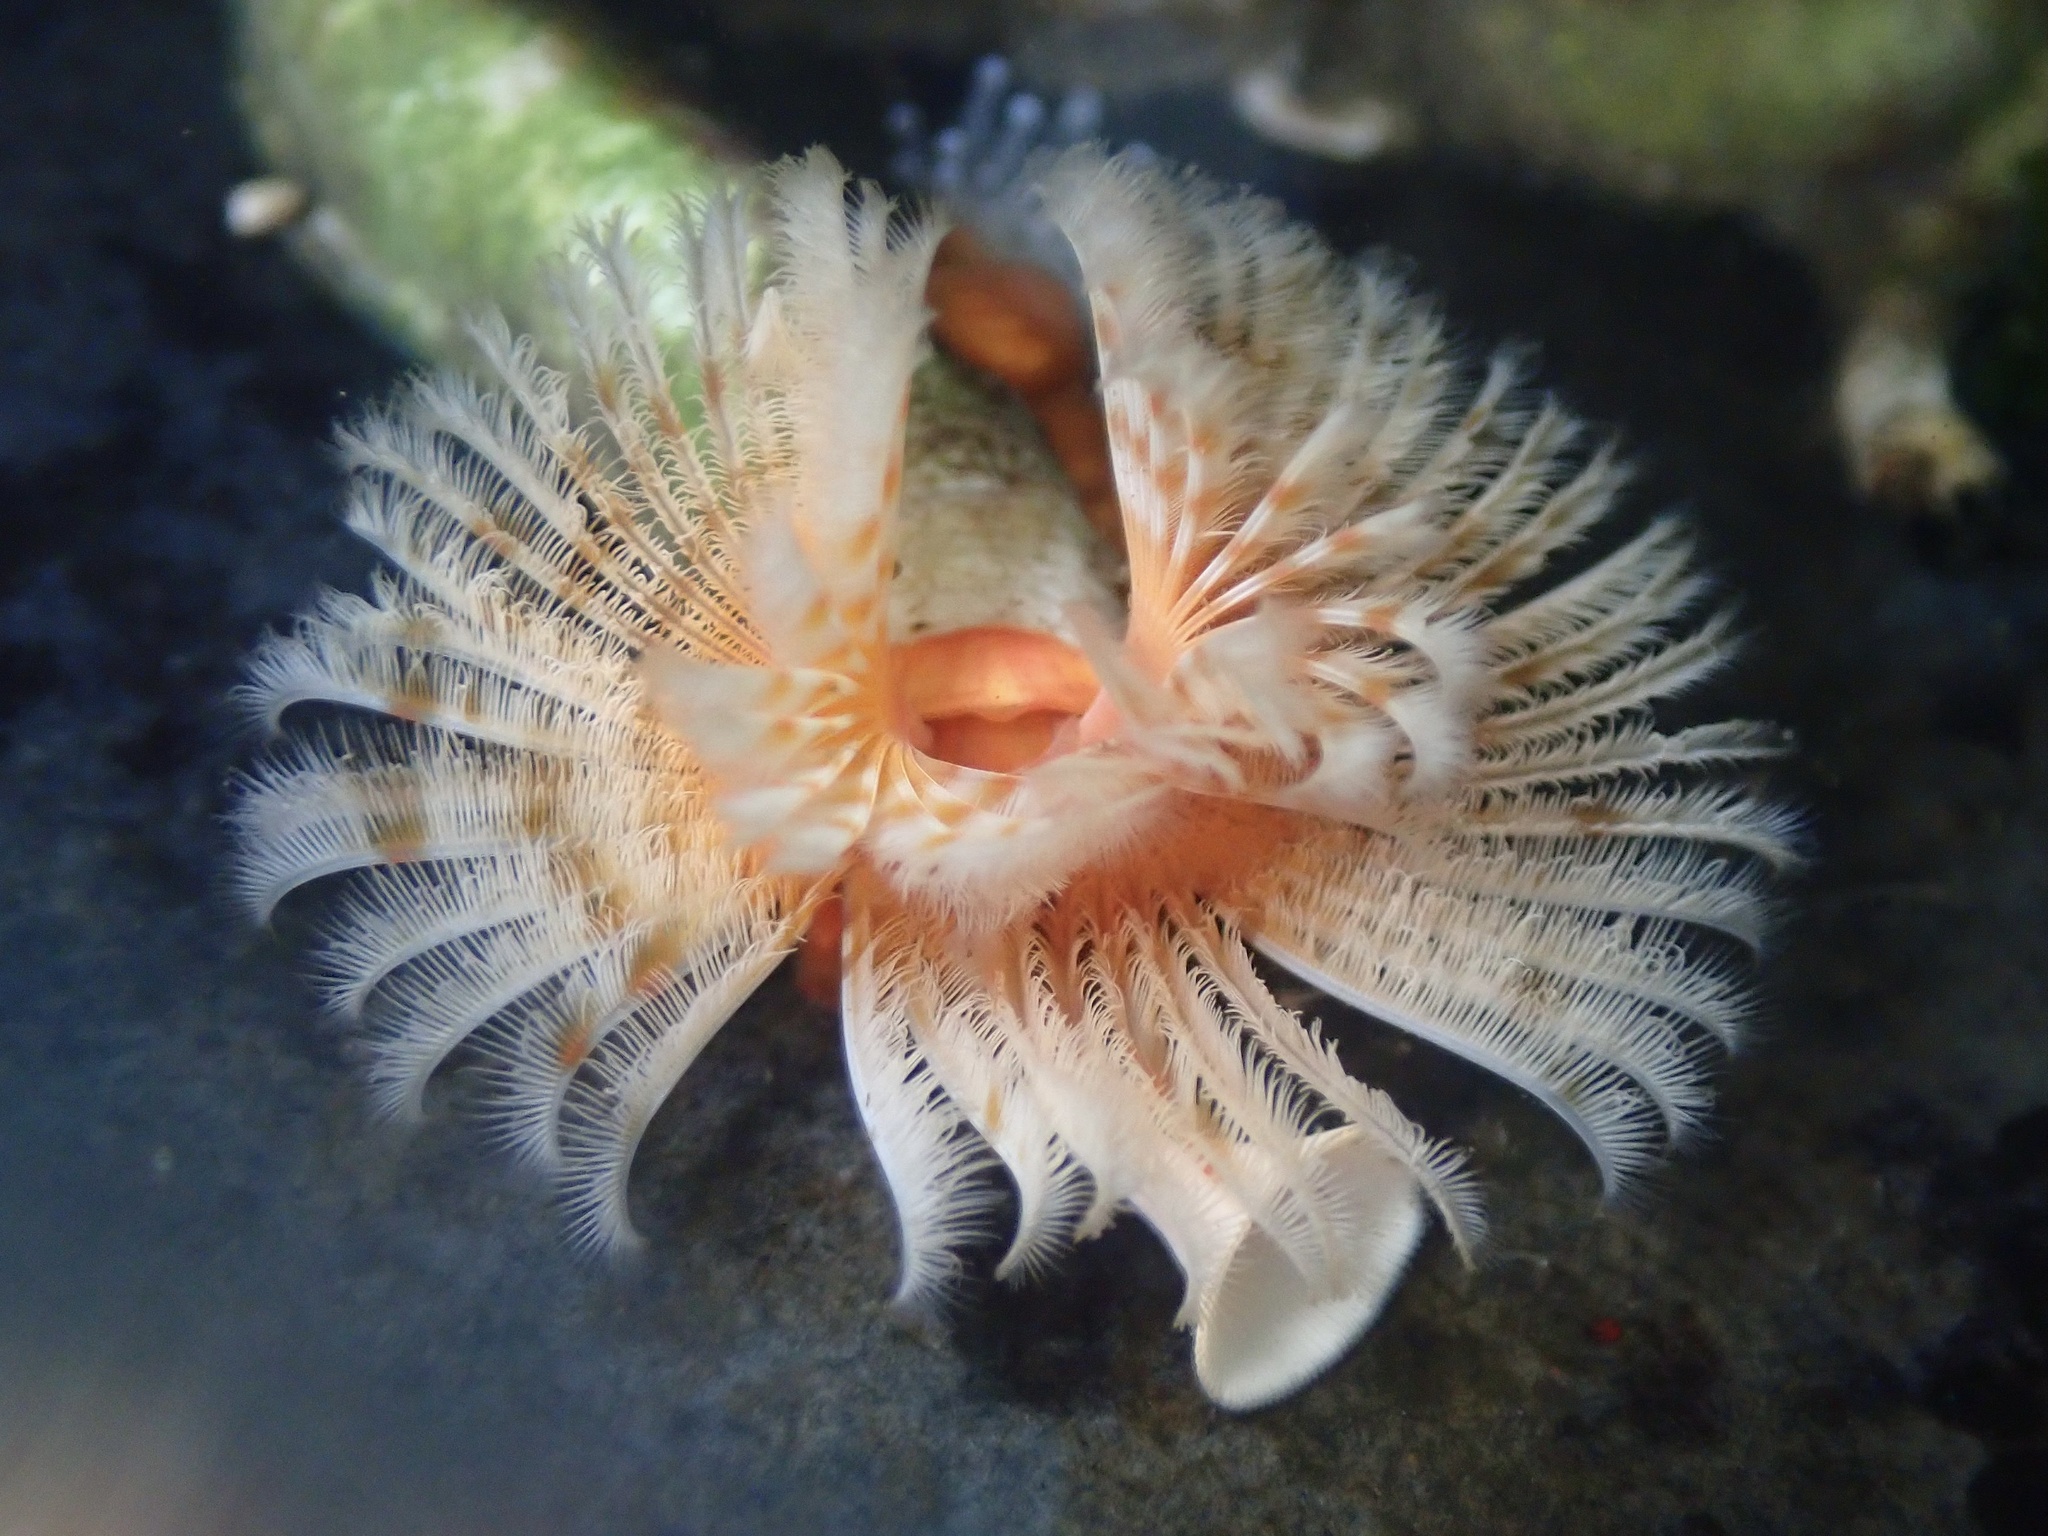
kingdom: Animalia
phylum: Annelida
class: Polychaeta
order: Sabellida
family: Serpulidae
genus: Serpula
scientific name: Serpula columbiana
